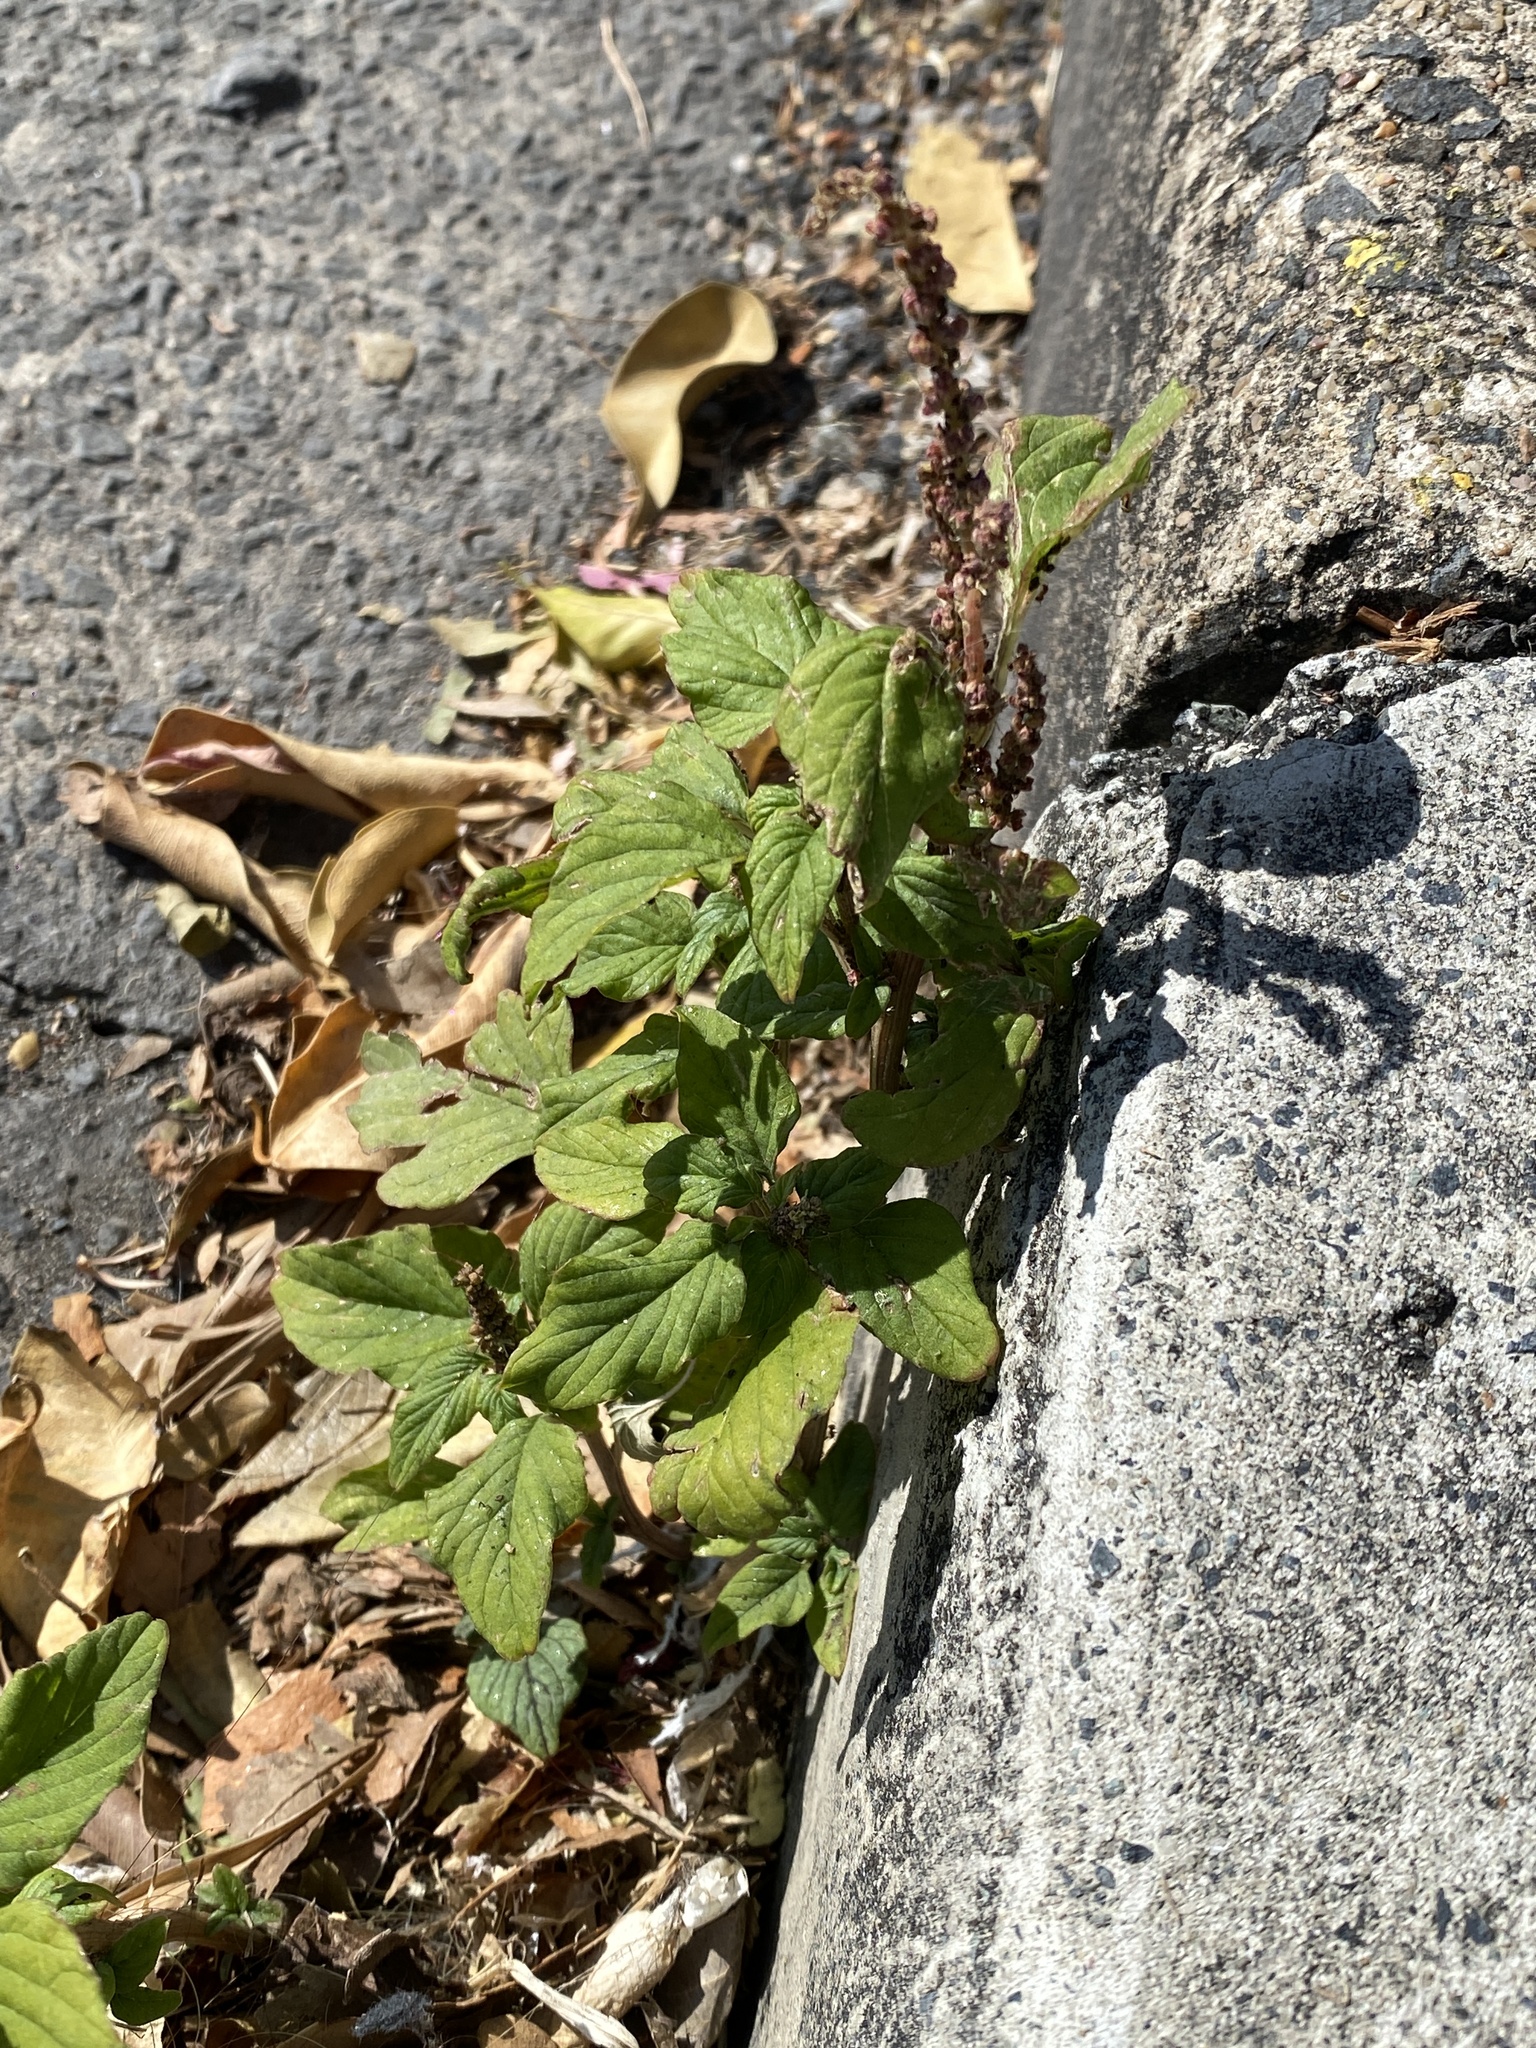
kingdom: Plantae
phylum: Tracheophyta
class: Magnoliopsida
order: Caryophyllales
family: Amaranthaceae
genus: Amaranthus
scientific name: Amaranthus viridis
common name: Slender amaranth
